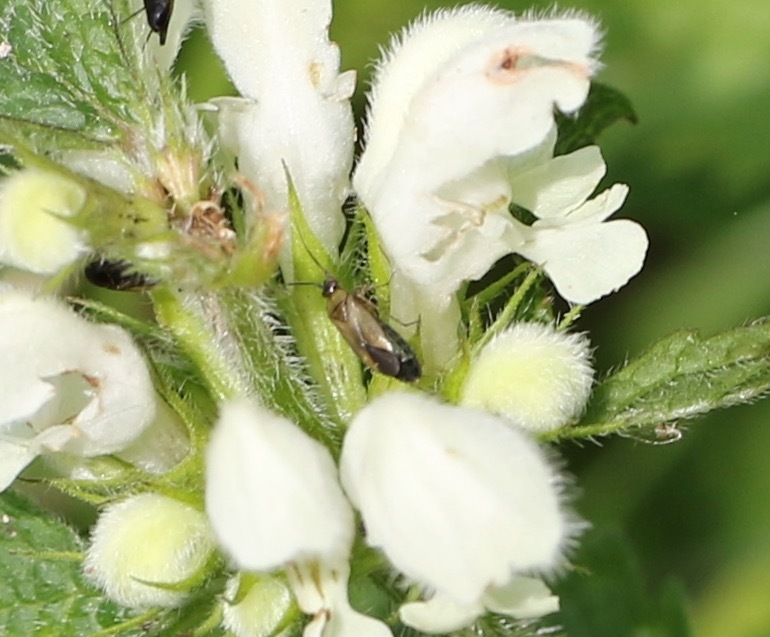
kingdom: Animalia
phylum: Arthropoda
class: Insecta
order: Hemiptera
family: Miridae
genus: Plagiognathus
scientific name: Plagiognathus arbustorum
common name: Plant bug
